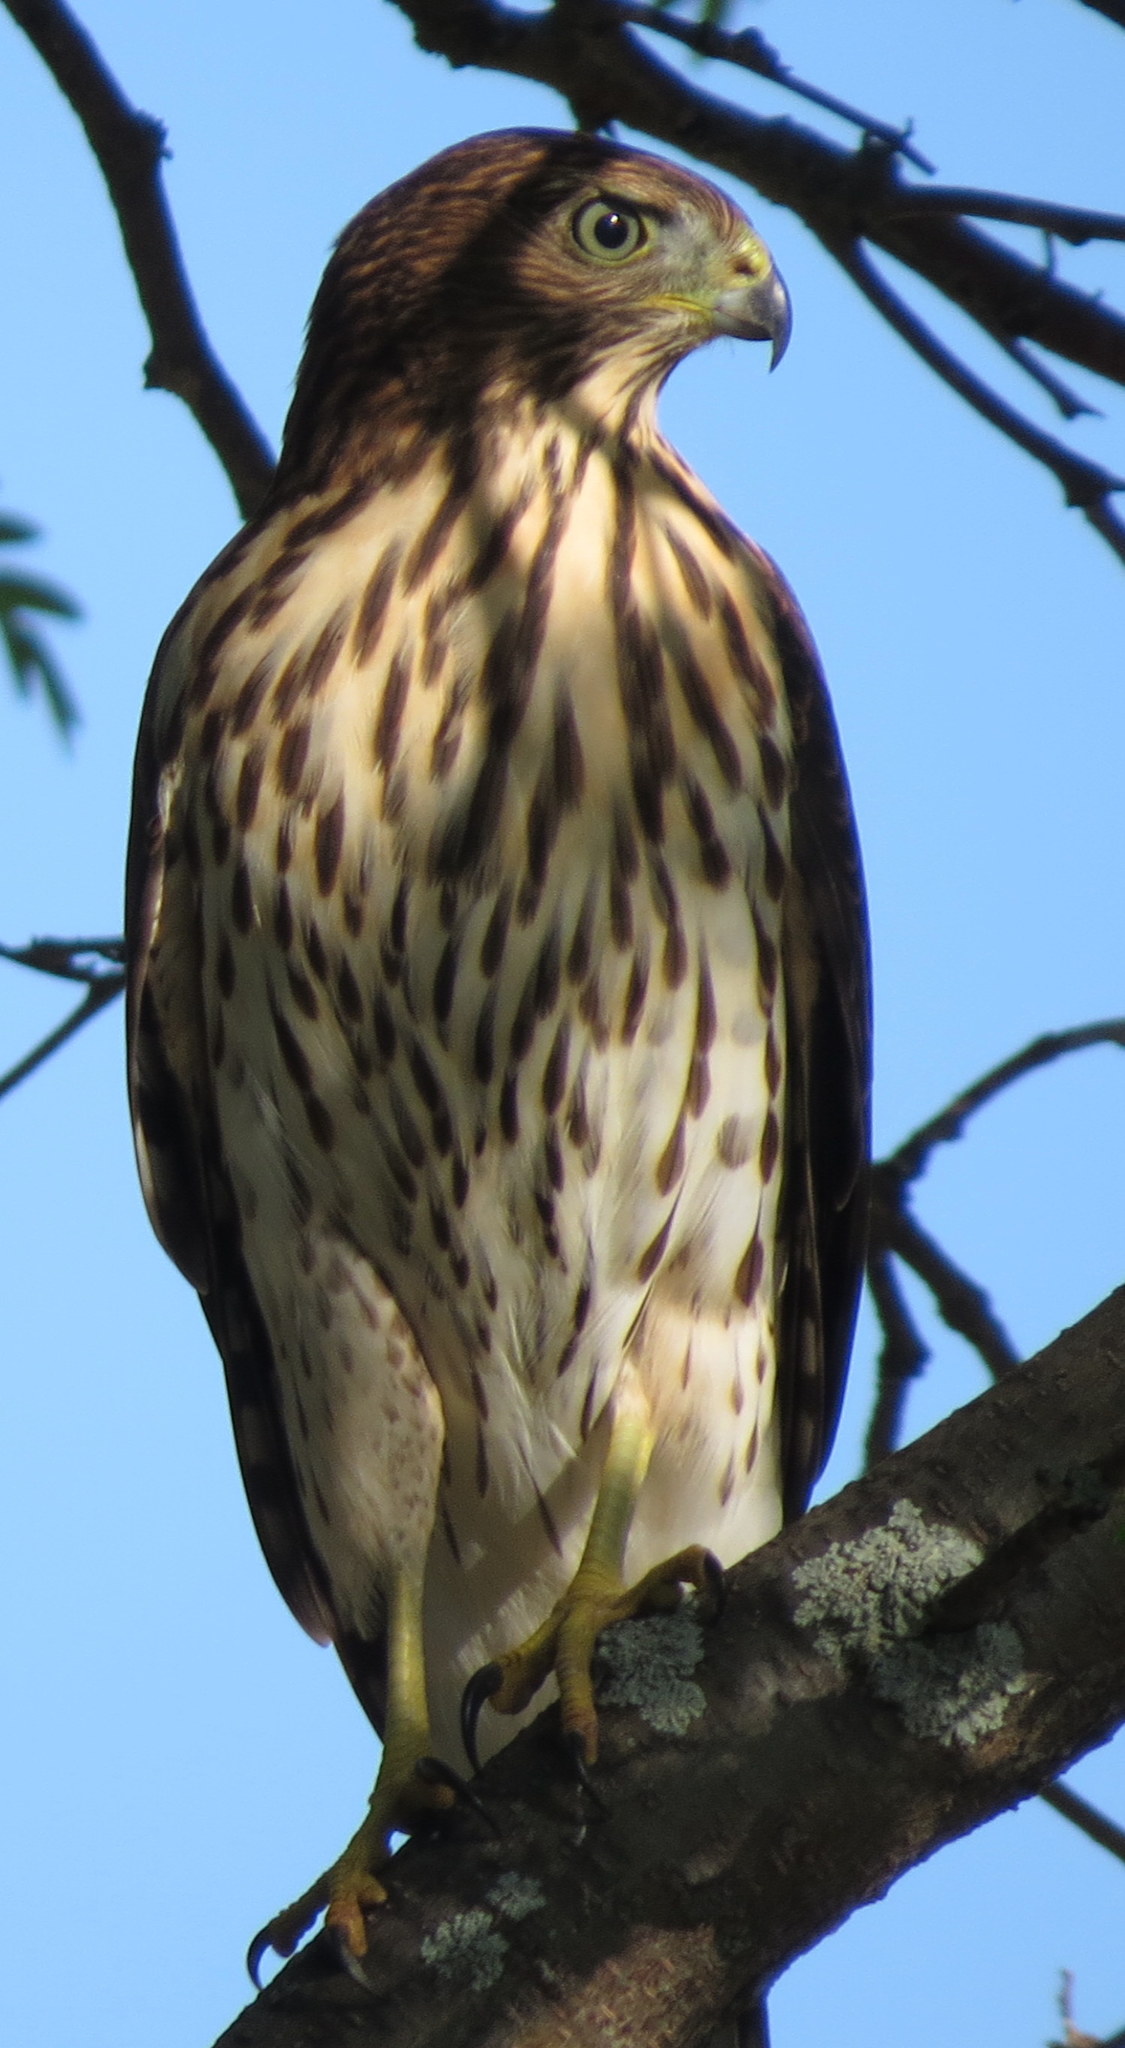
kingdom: Animalia
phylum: Chordata
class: Aves
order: Accipitriformes
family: Accipitridae
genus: Accipiter
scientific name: Accipiter cooperii
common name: Cooper's hawk
